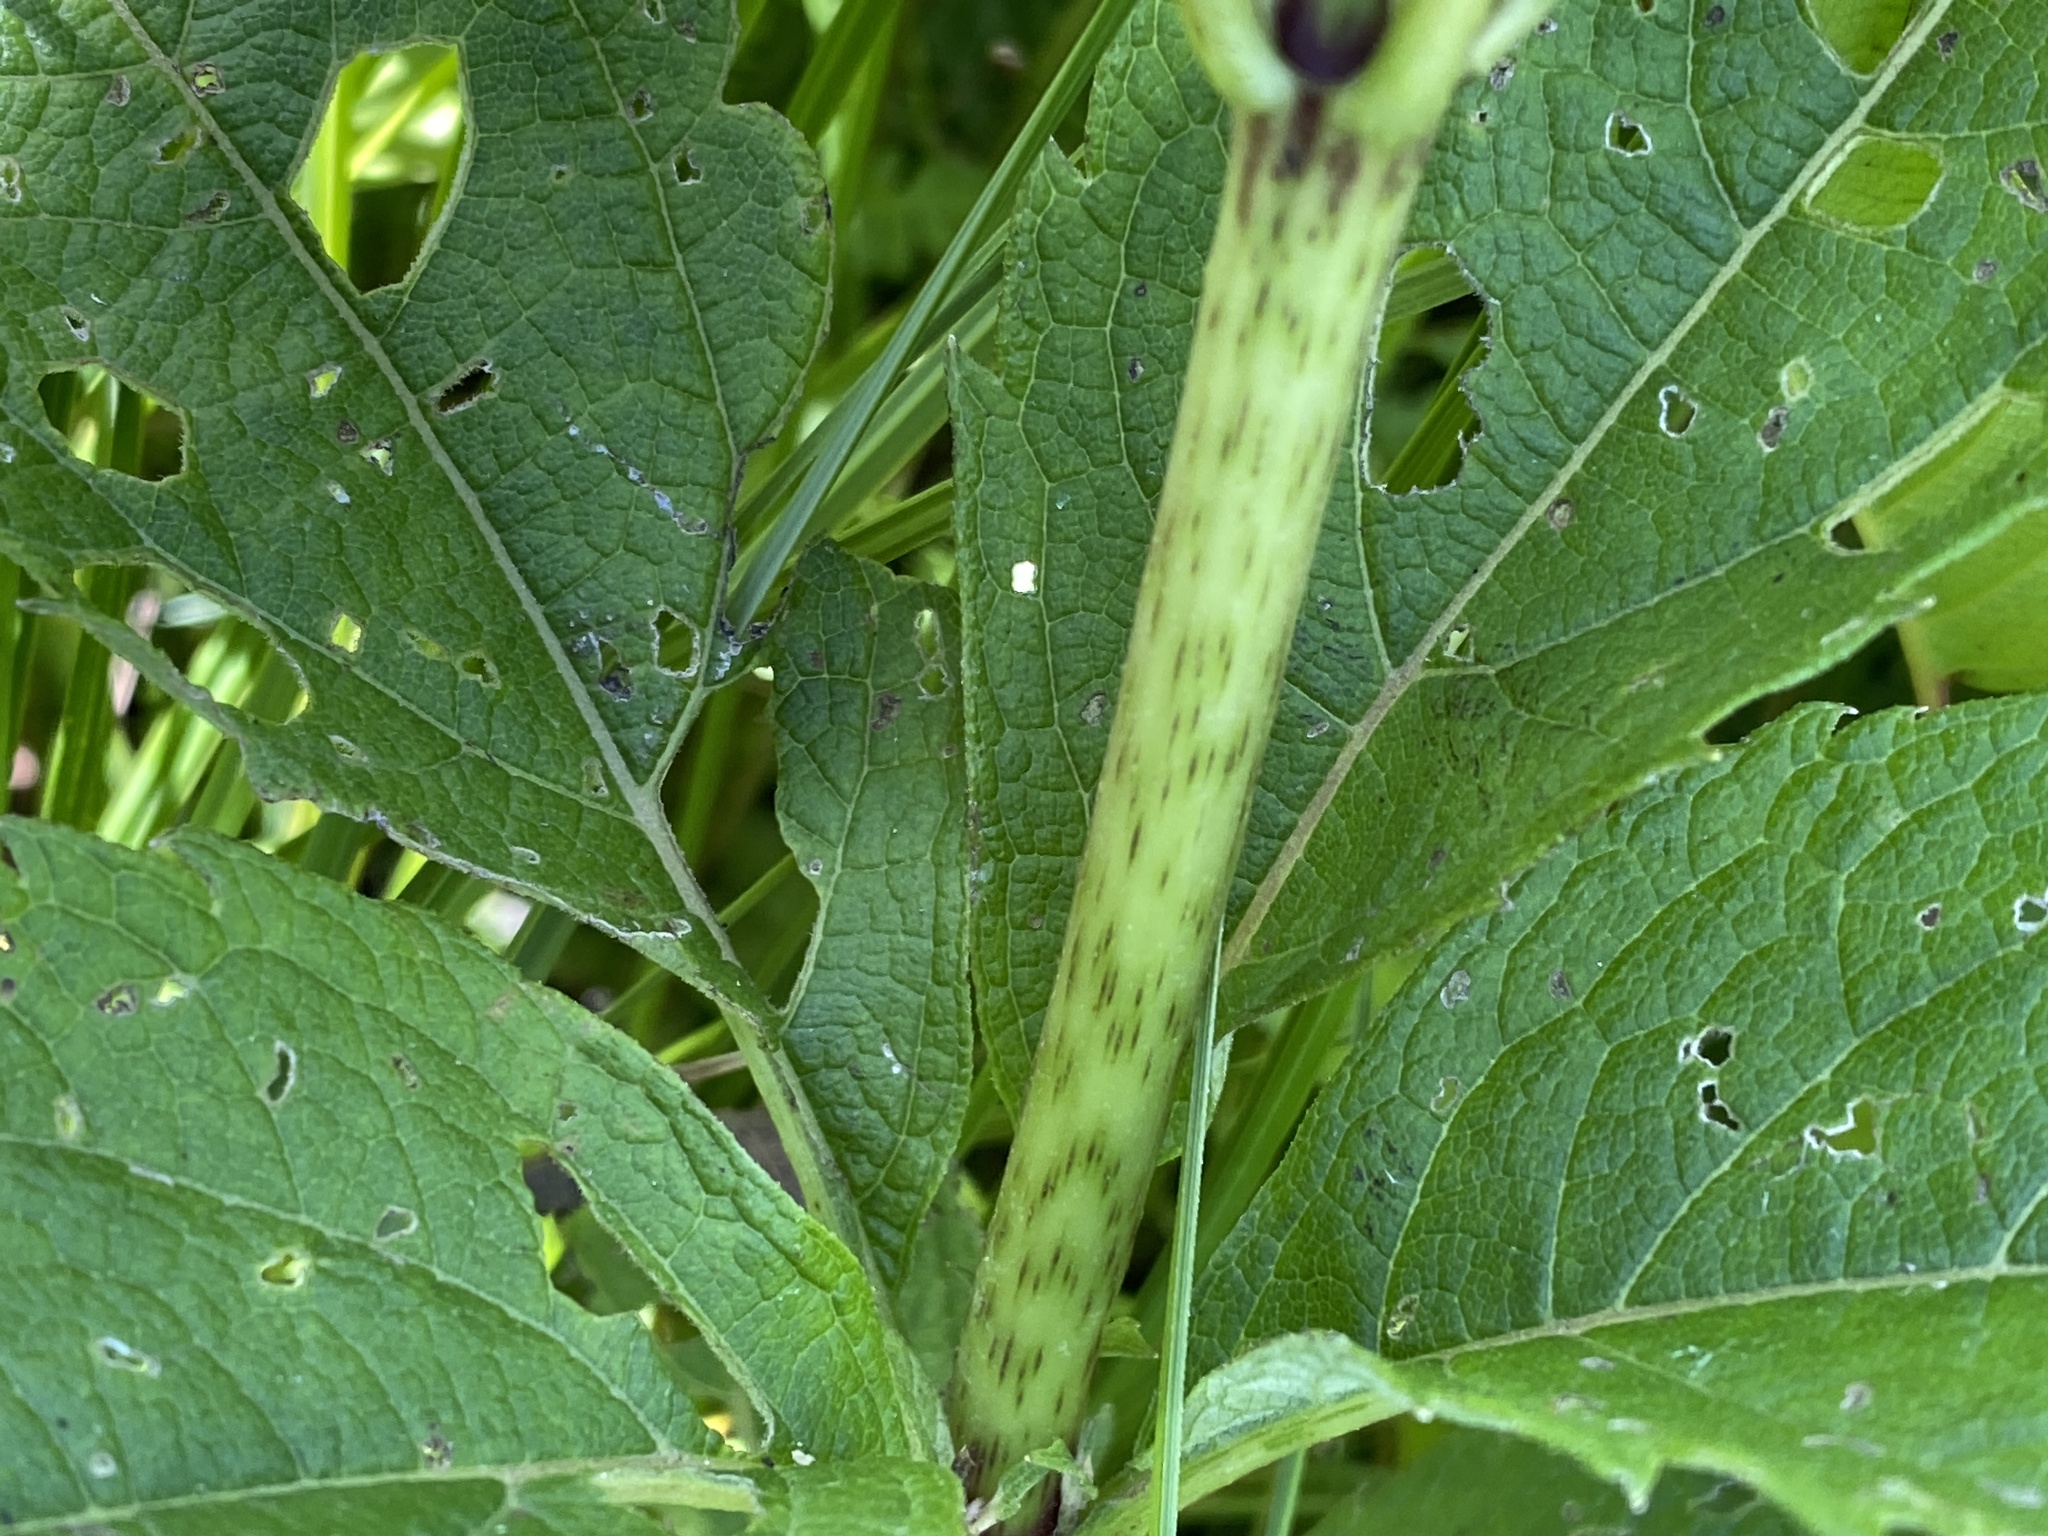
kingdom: Plantae
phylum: Tracheophyta
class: Magnoliopsida
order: Asterales
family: Asteraceae
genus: Eutrochium
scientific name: Eutrochium maculatum
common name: Spotted joe pye weed
